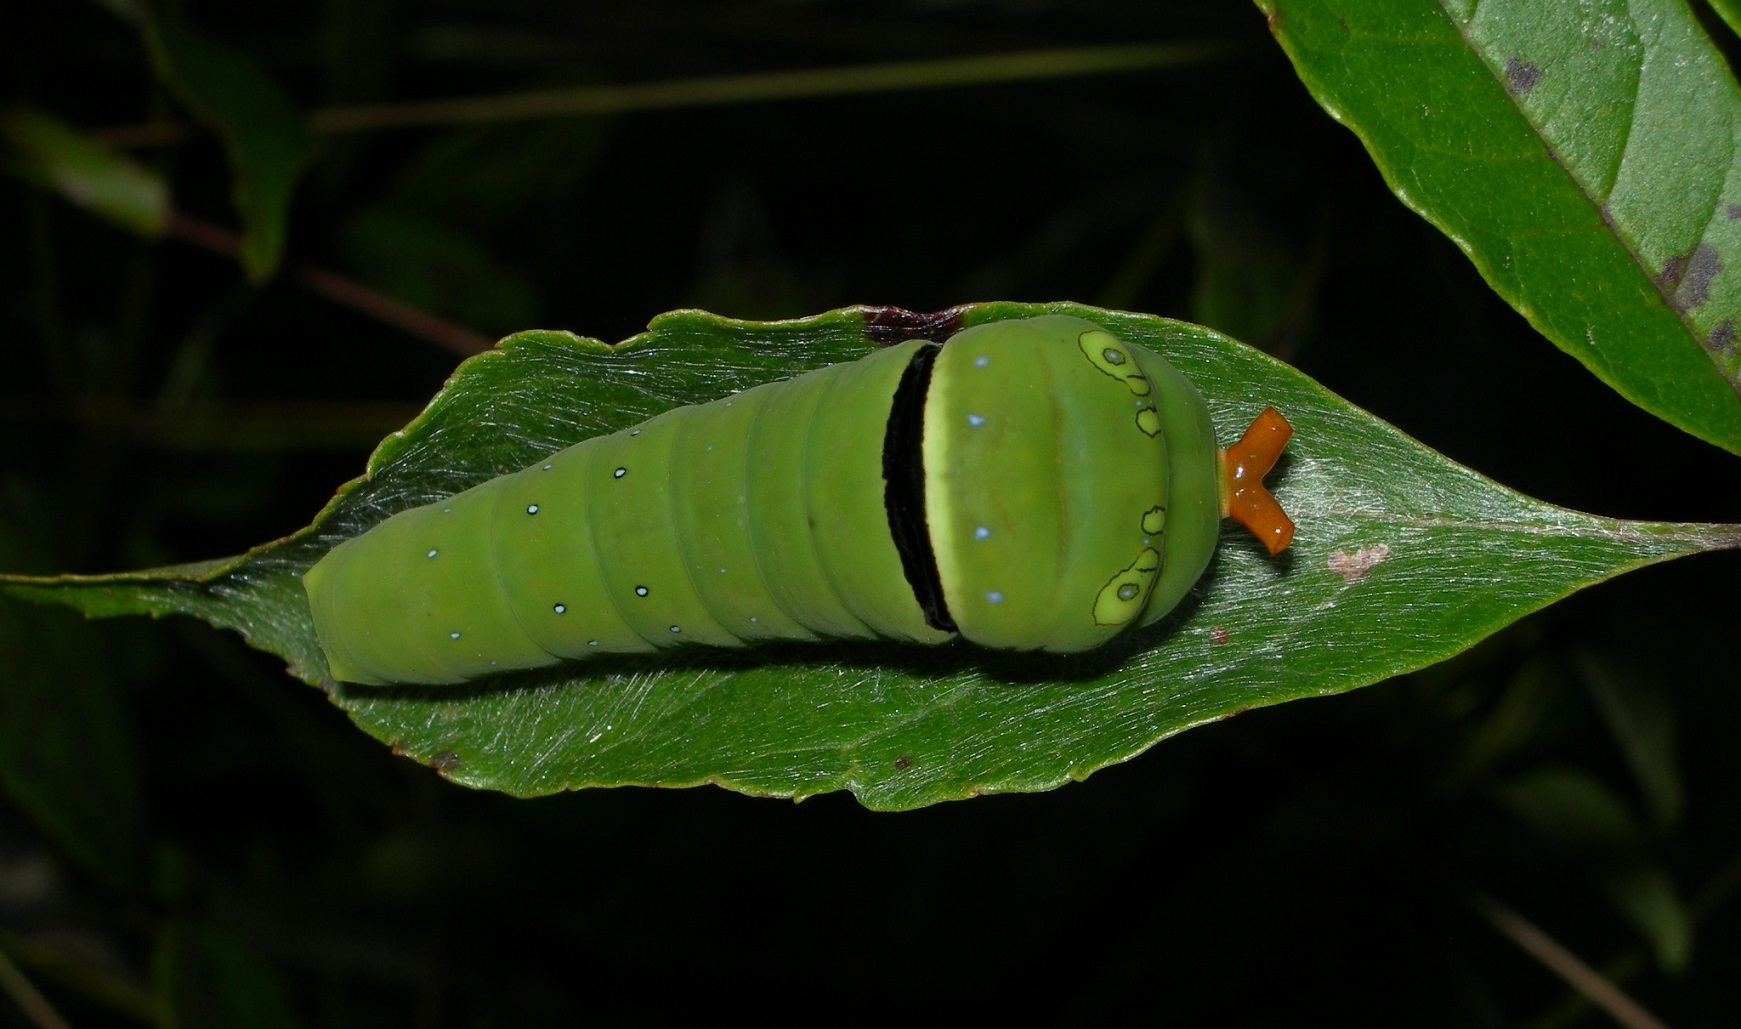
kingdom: Animalia
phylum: Arthropoda
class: Insecta
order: Lepidoptera
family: Papilionidae
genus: Papilio
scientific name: Papilio multicaudata
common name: Two-tailed tiger swallowtail
